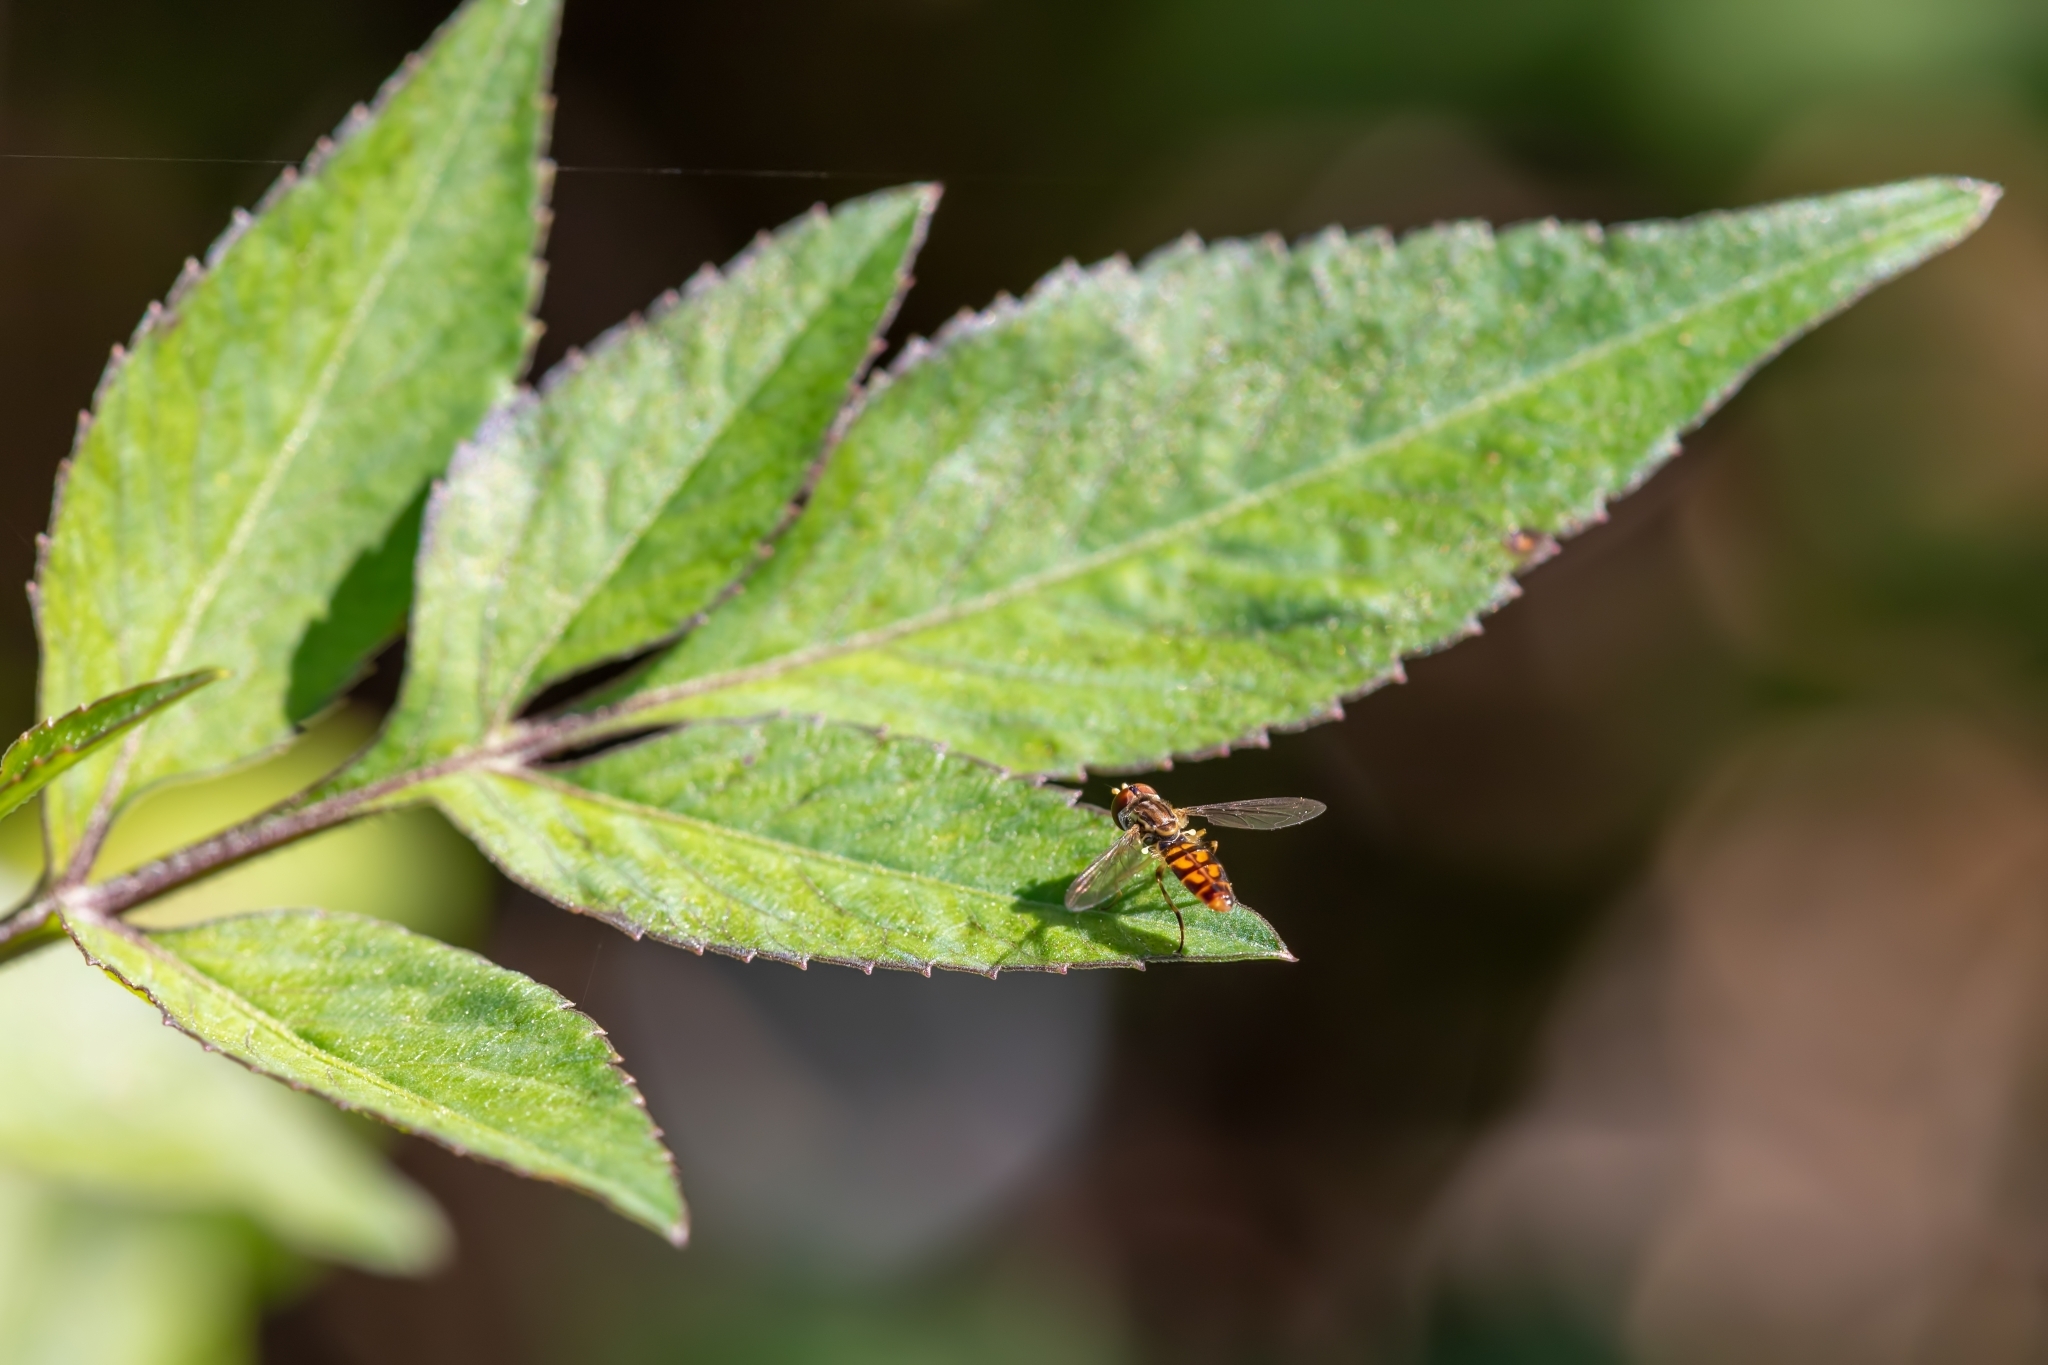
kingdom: Animalia
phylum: Arthropoda
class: Insecta
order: Diptera
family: Syrphidae
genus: Toxomerus
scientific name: Toxomerus floralis
